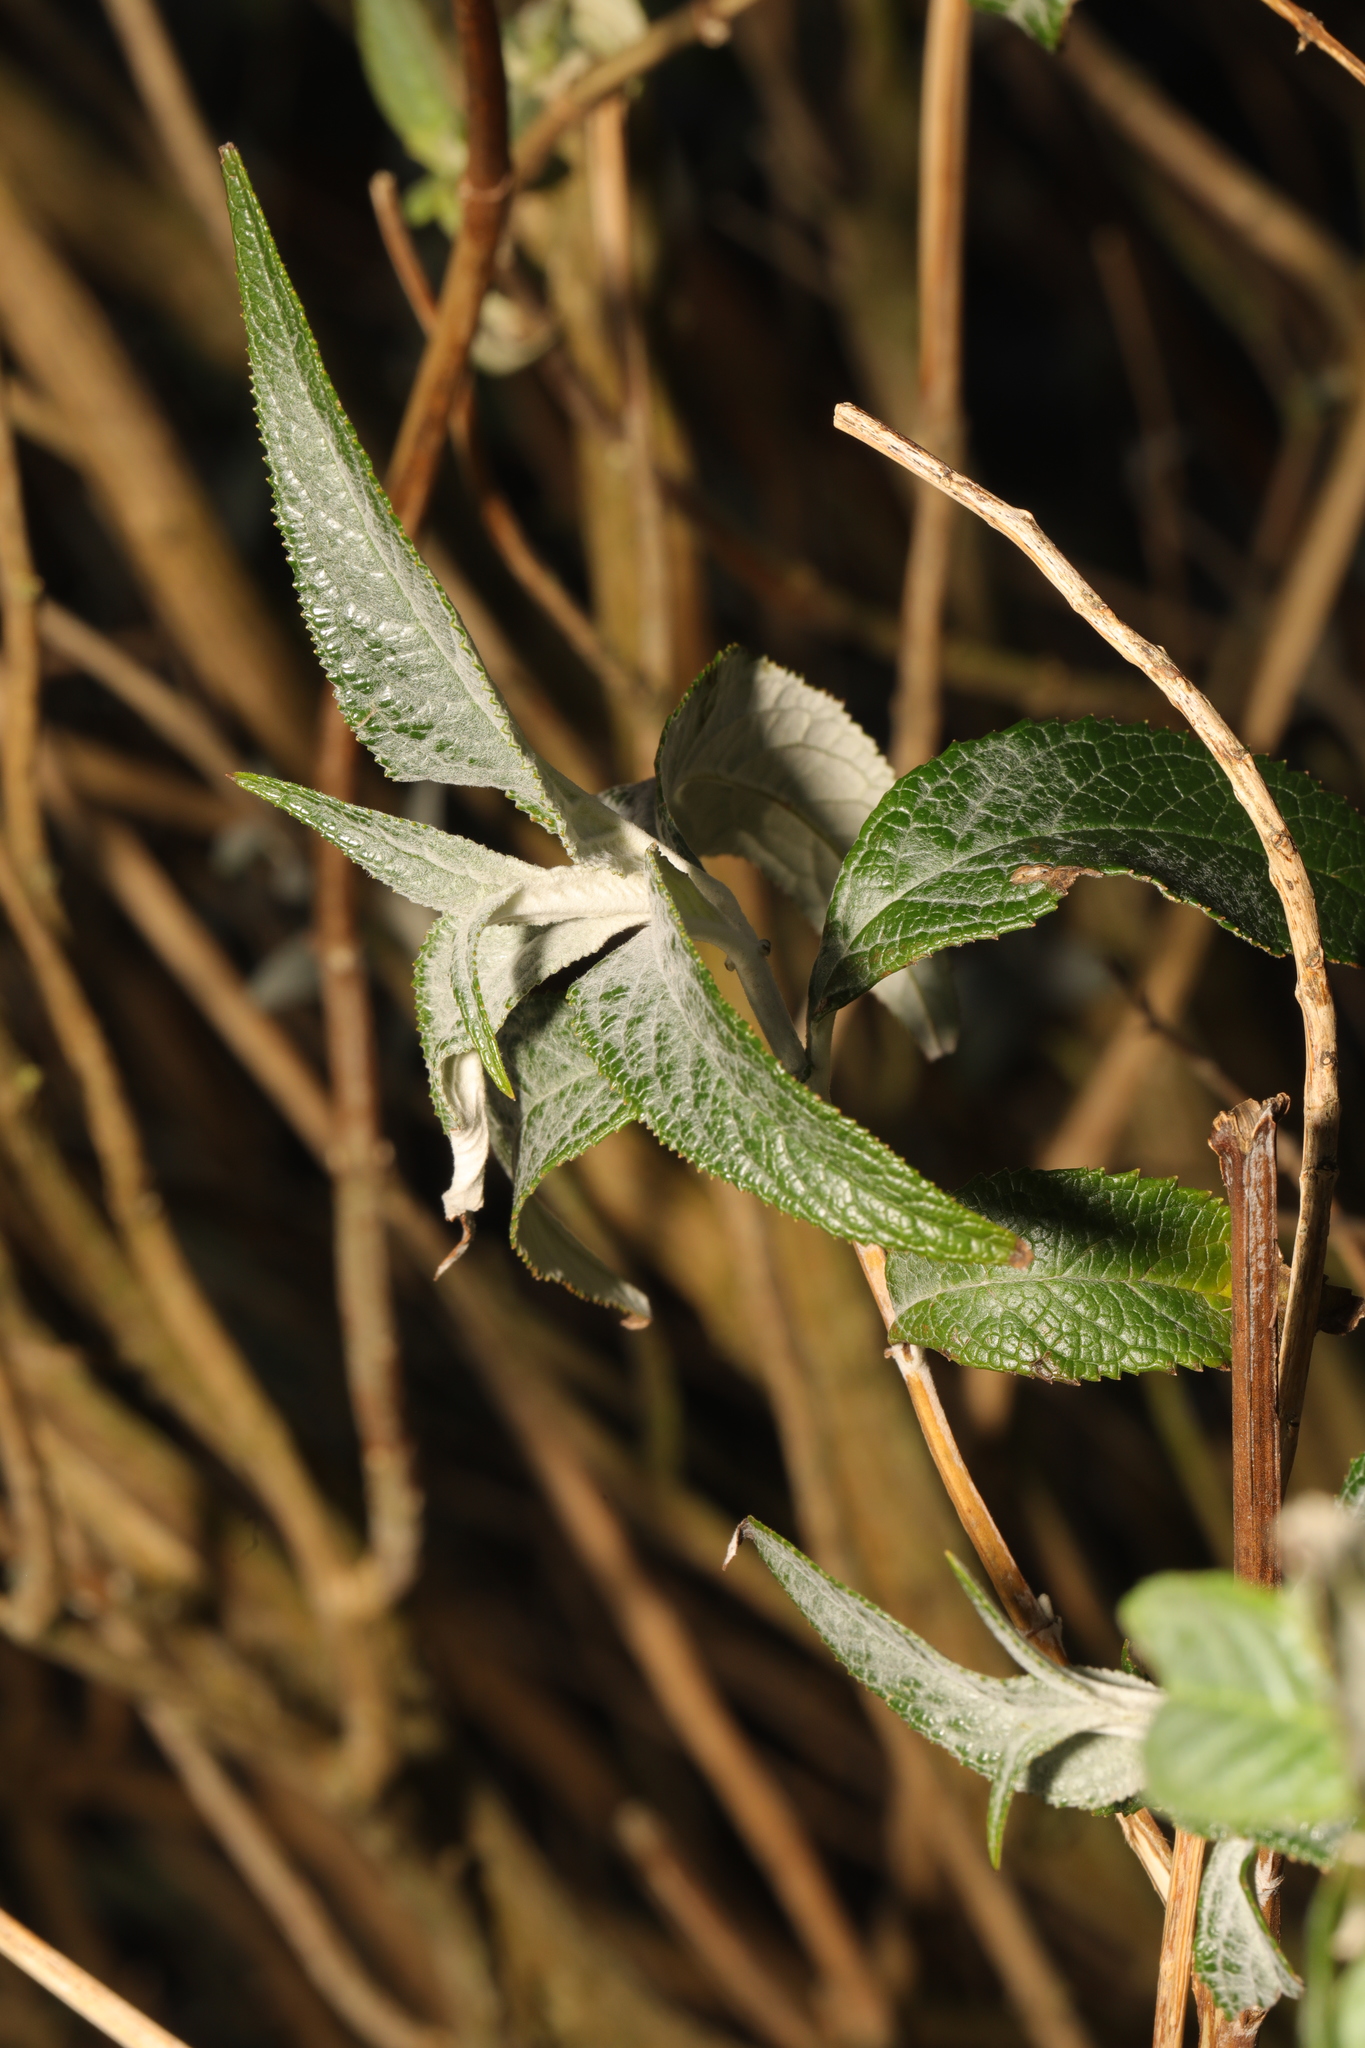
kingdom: Plantae
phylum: Tracheophyta
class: Magnoliopsida
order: Lamiales
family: Scrophulariaceae
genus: Buddleja
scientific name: Buddleja davidii
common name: Butterfly-bush
